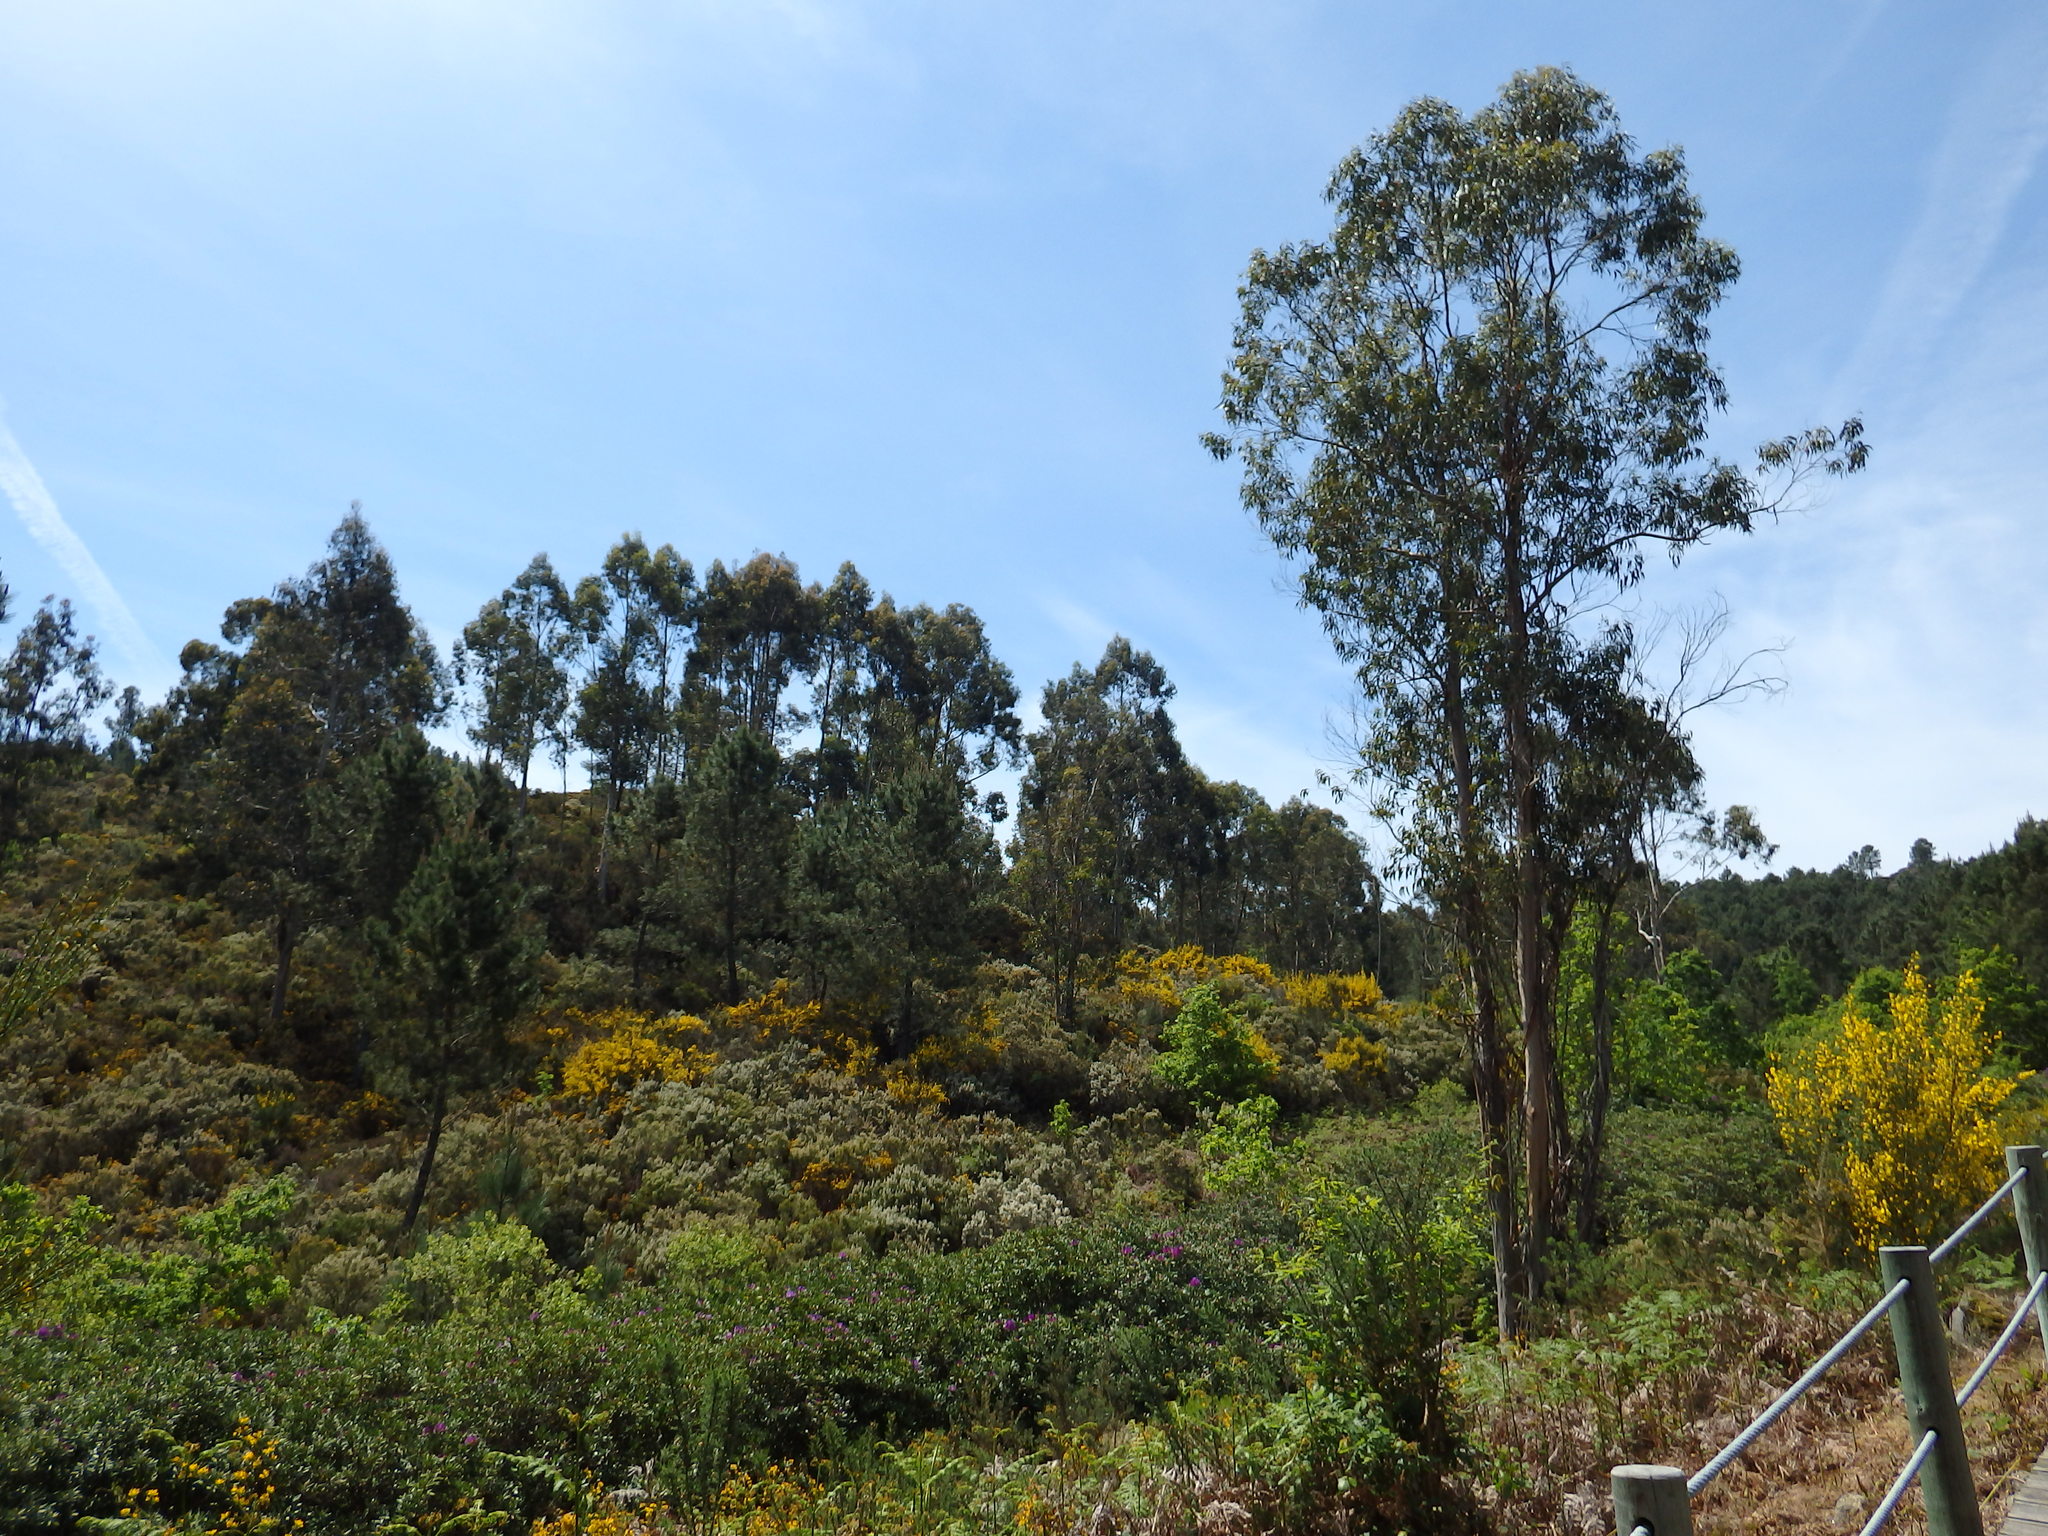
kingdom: Plantae
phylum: Tracheophyta
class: Magnoliopsida
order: Myrtales
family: Myrtaceae
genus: Eucalyptus
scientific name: Eucalyptus globulus
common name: Southern blue-gum
